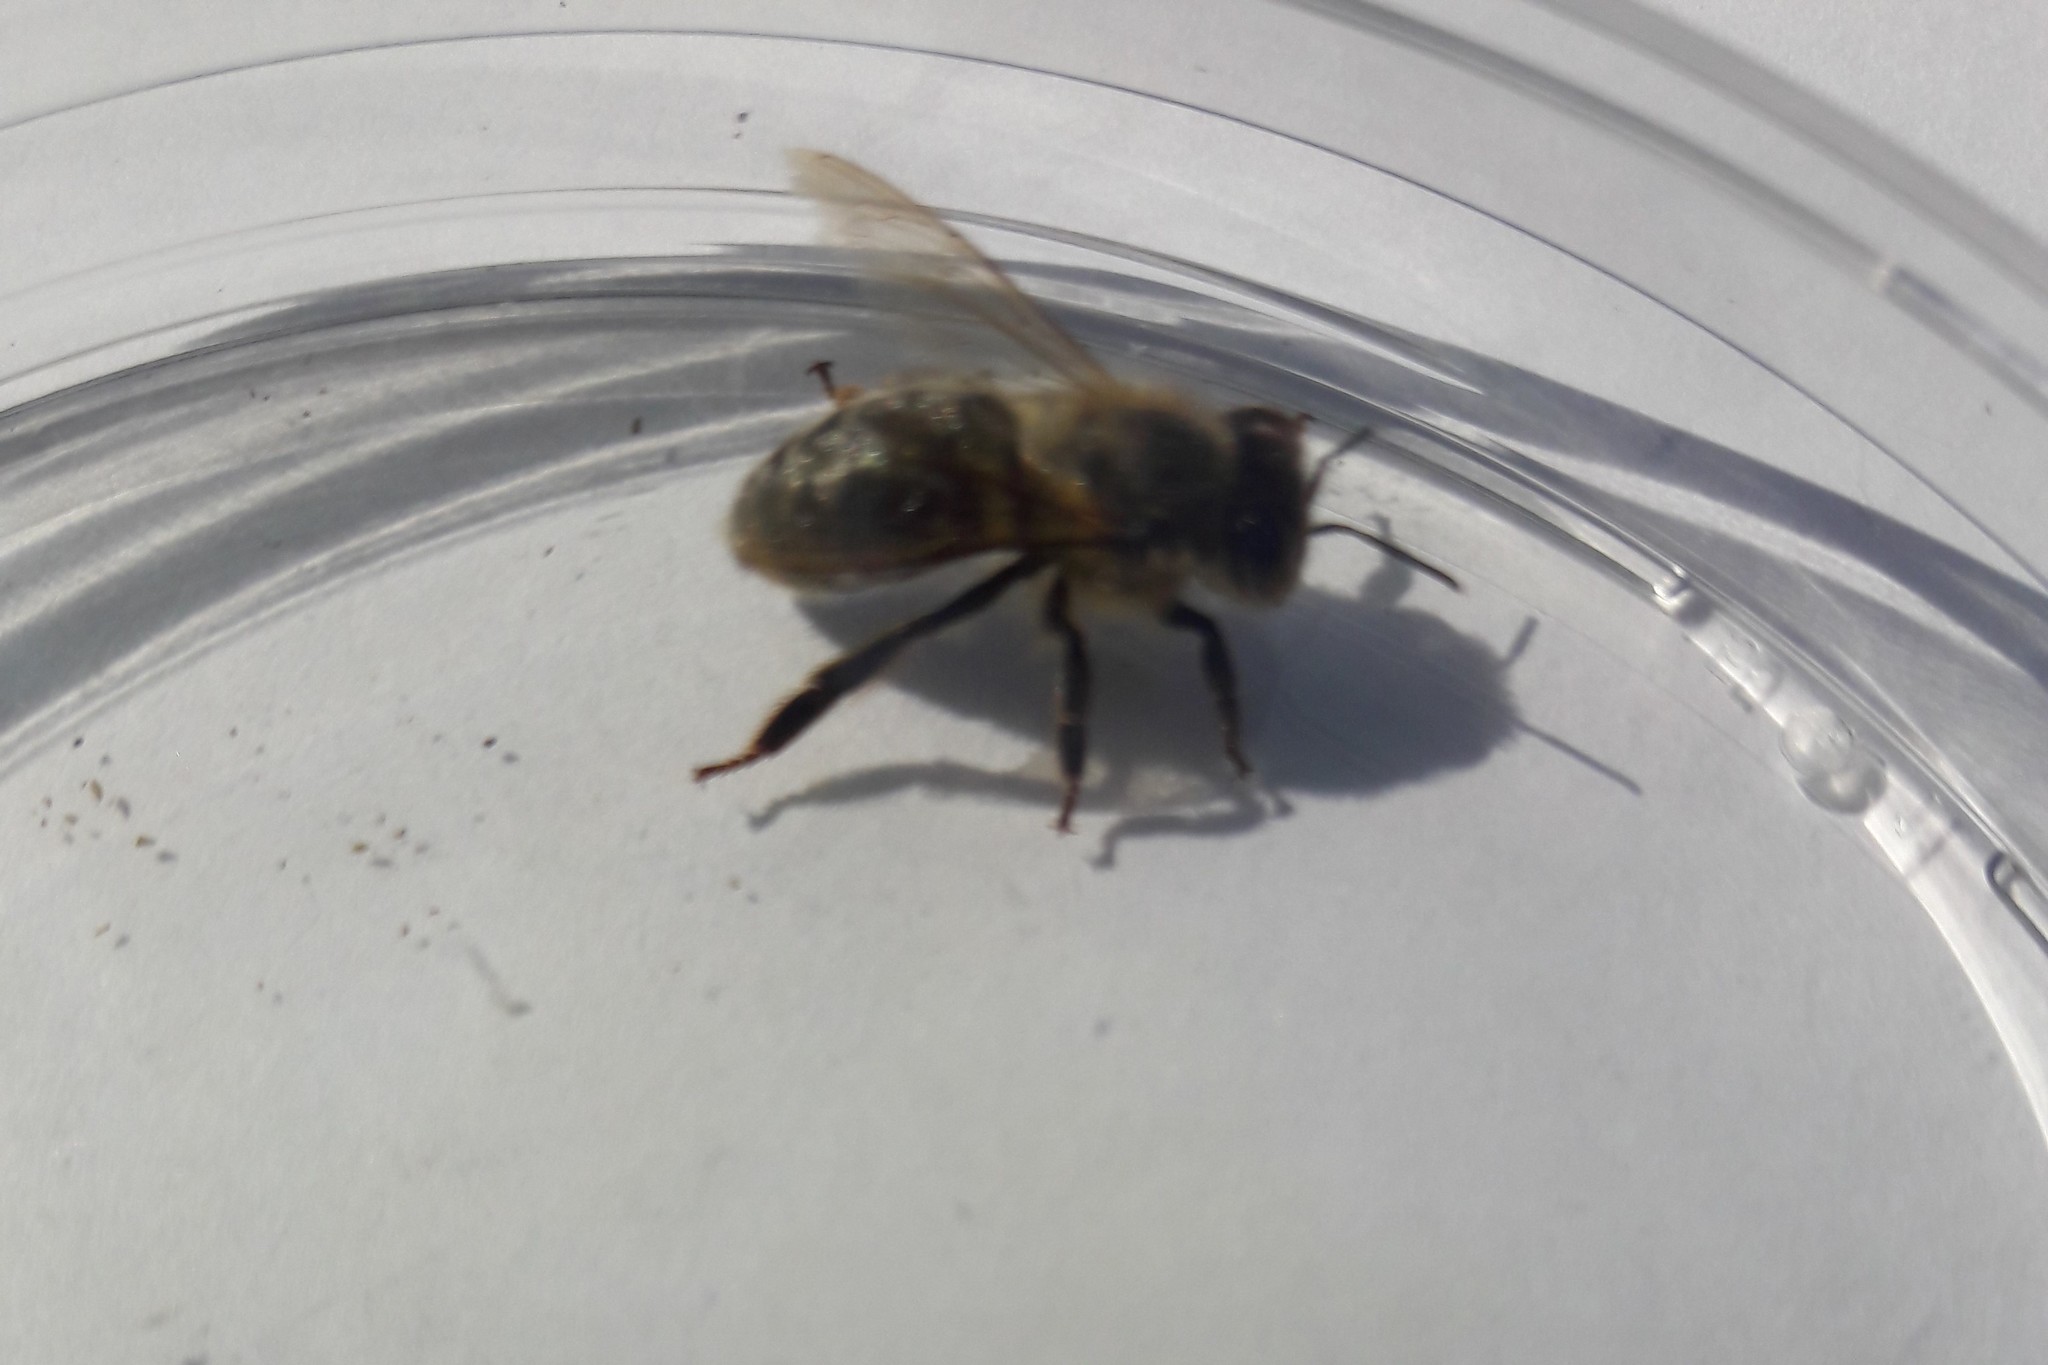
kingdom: Animalia
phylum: Arthropoda
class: Insecta
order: Hymenoptera
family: Apidae
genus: Apis
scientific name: Apis mellifera
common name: Honey bee
